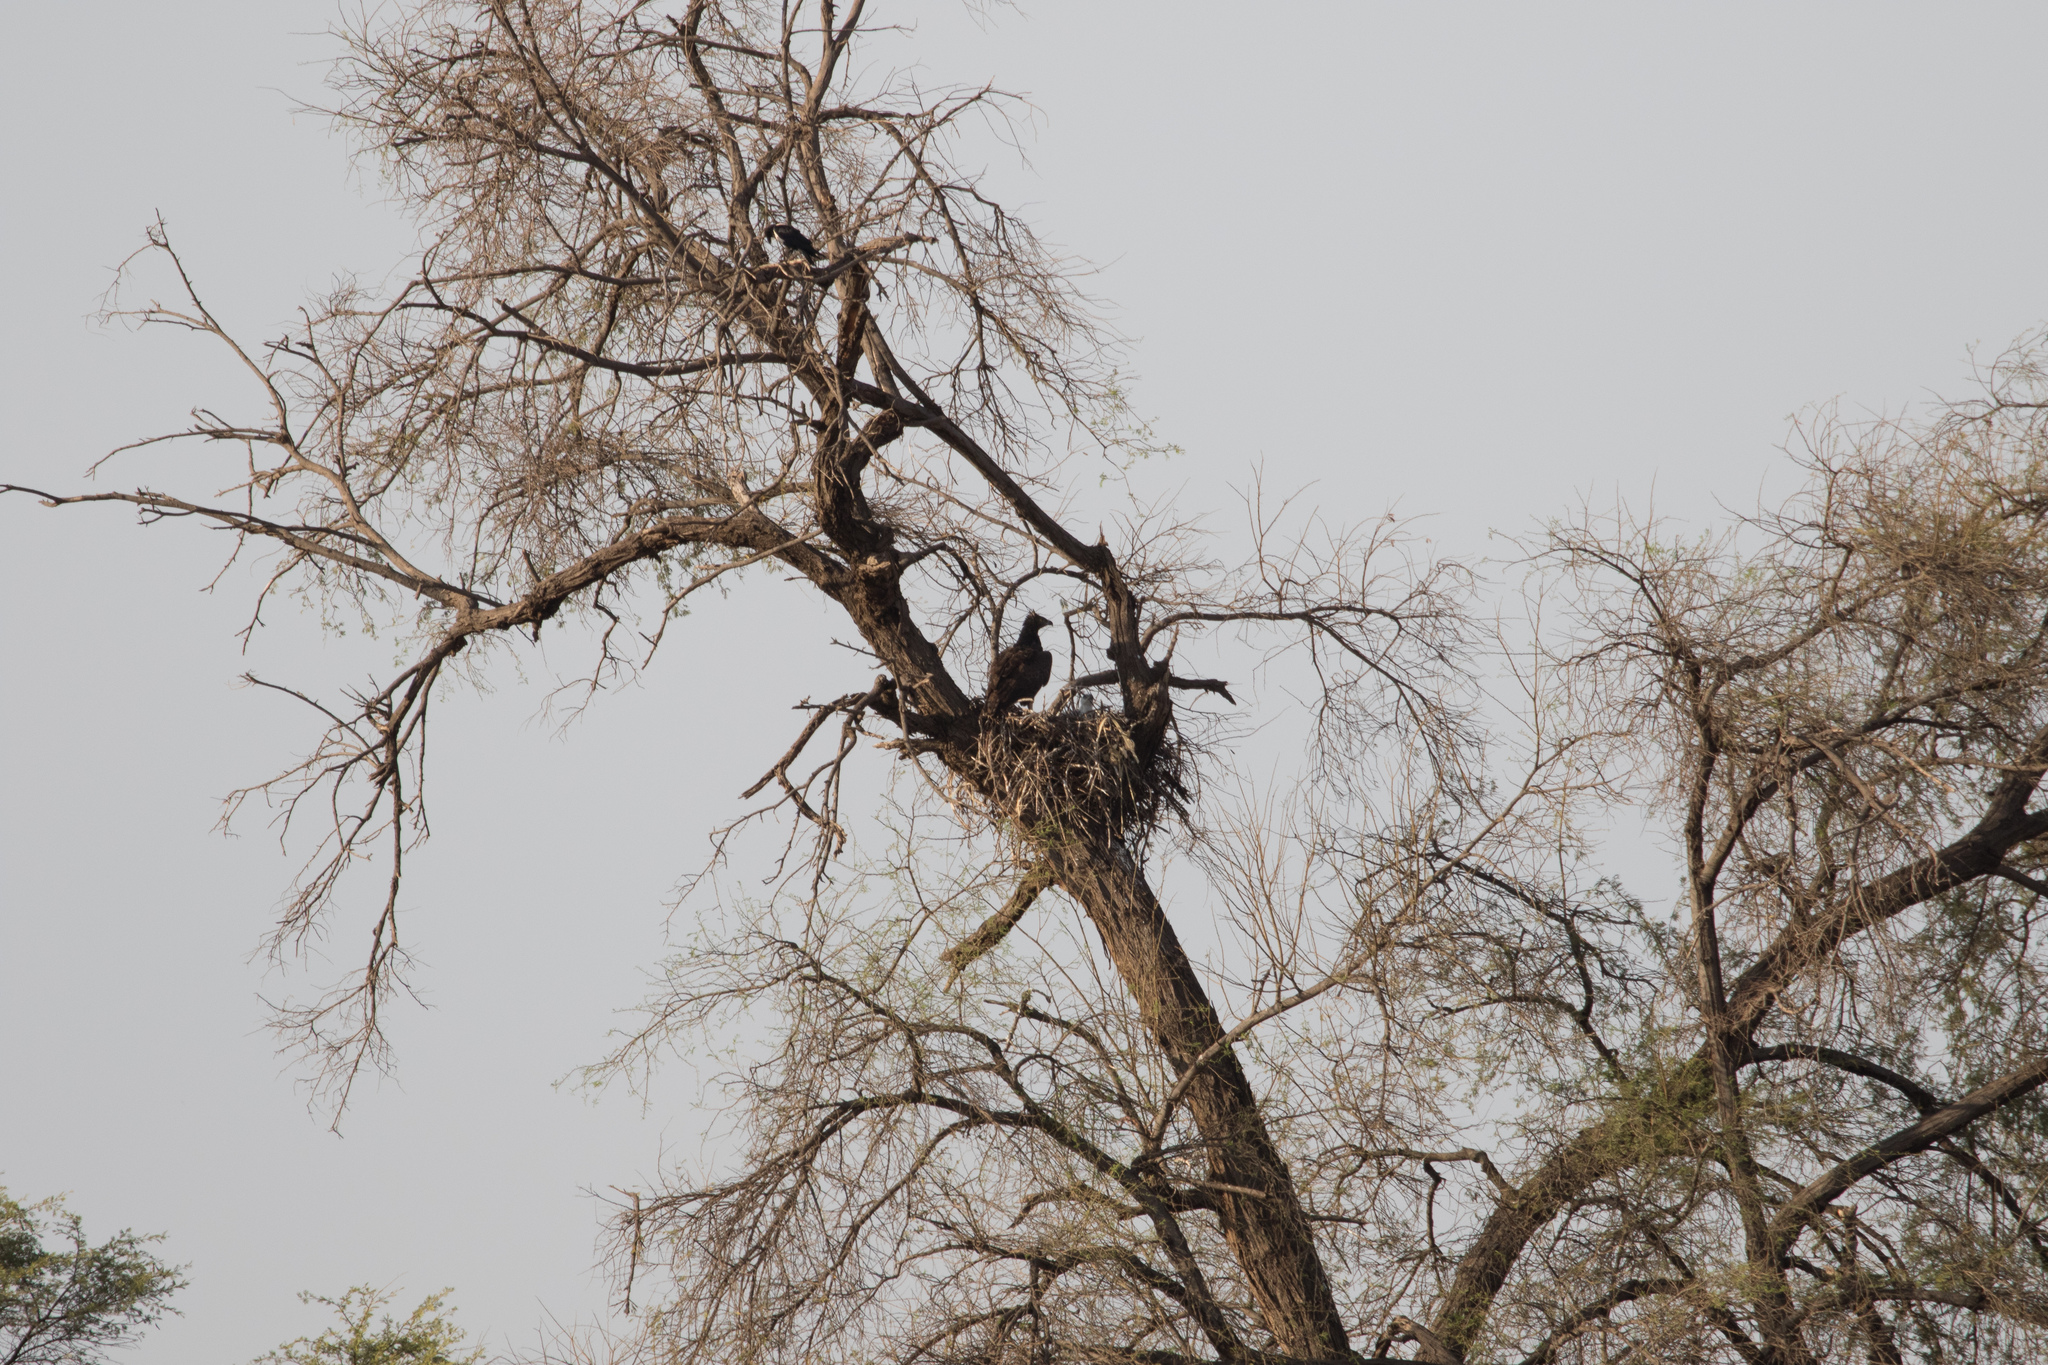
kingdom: Animalia
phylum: Chordata
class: Aves
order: Accipitriformes
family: Accipitridae
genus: Polemaetus
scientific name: Polemaetus bellicosus
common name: Martial eagle
